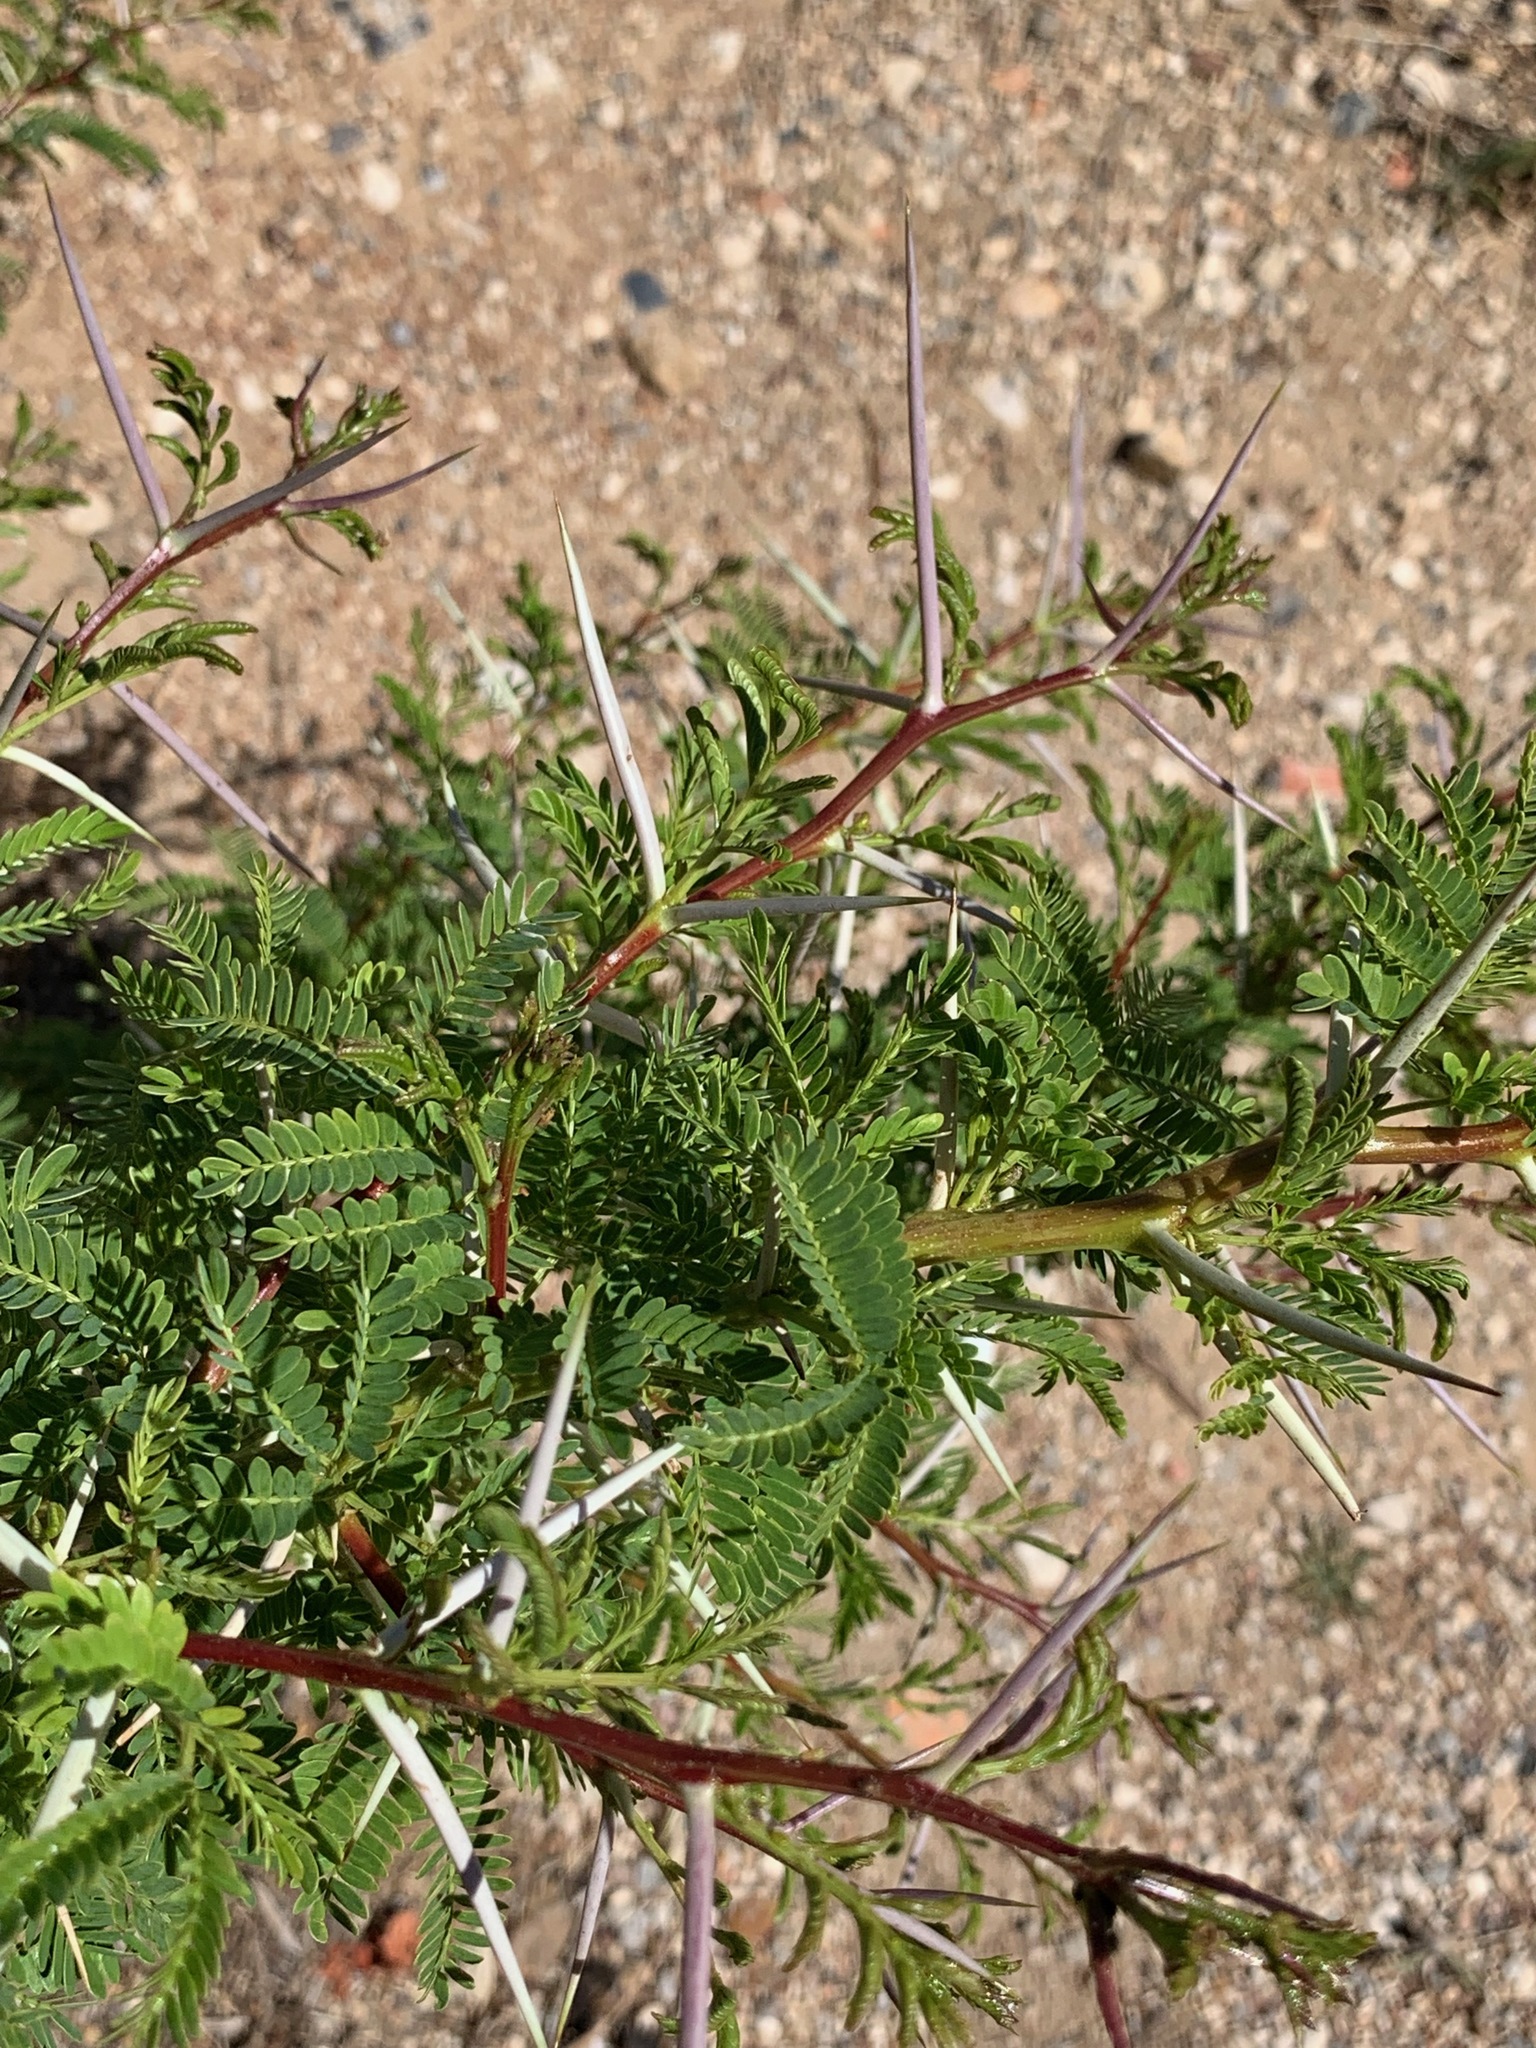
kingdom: Plantae
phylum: Tracheophyta
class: Magnoliopsida
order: Fabales
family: Fabaceae
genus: Vachellia
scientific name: Vachellia karroo
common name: Sweet thorn
